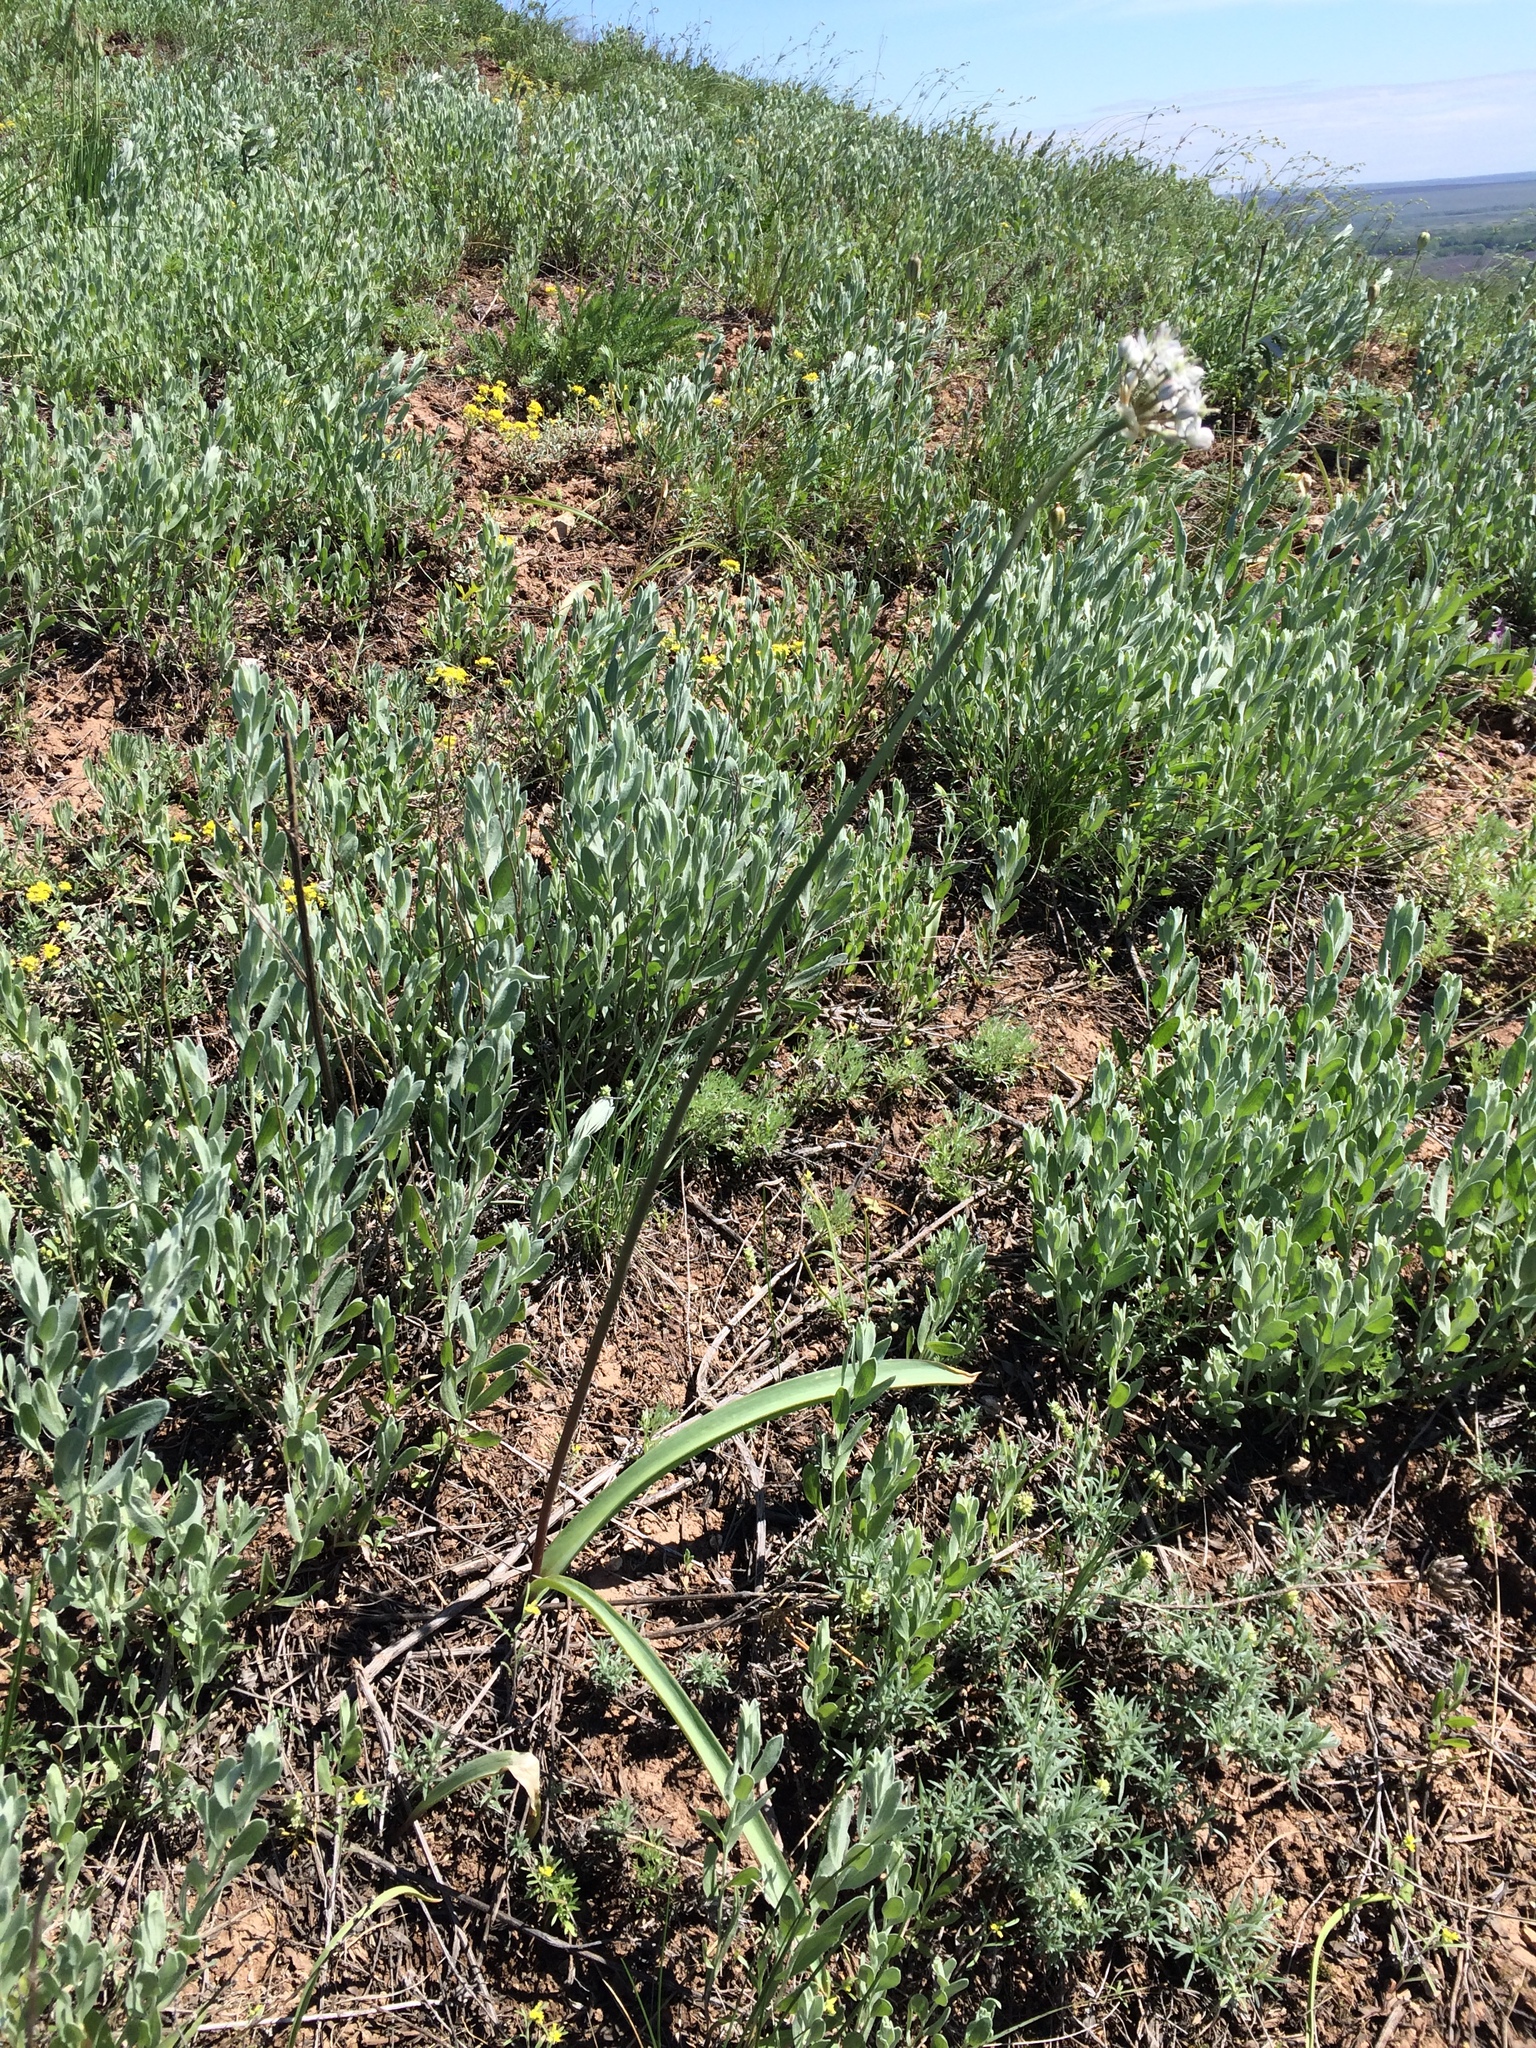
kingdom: Plantae
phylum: Tracheophyta
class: Liliopsida
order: Asparagales
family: Amaryllidaceae
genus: Allium
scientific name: Allium tulipifolium
